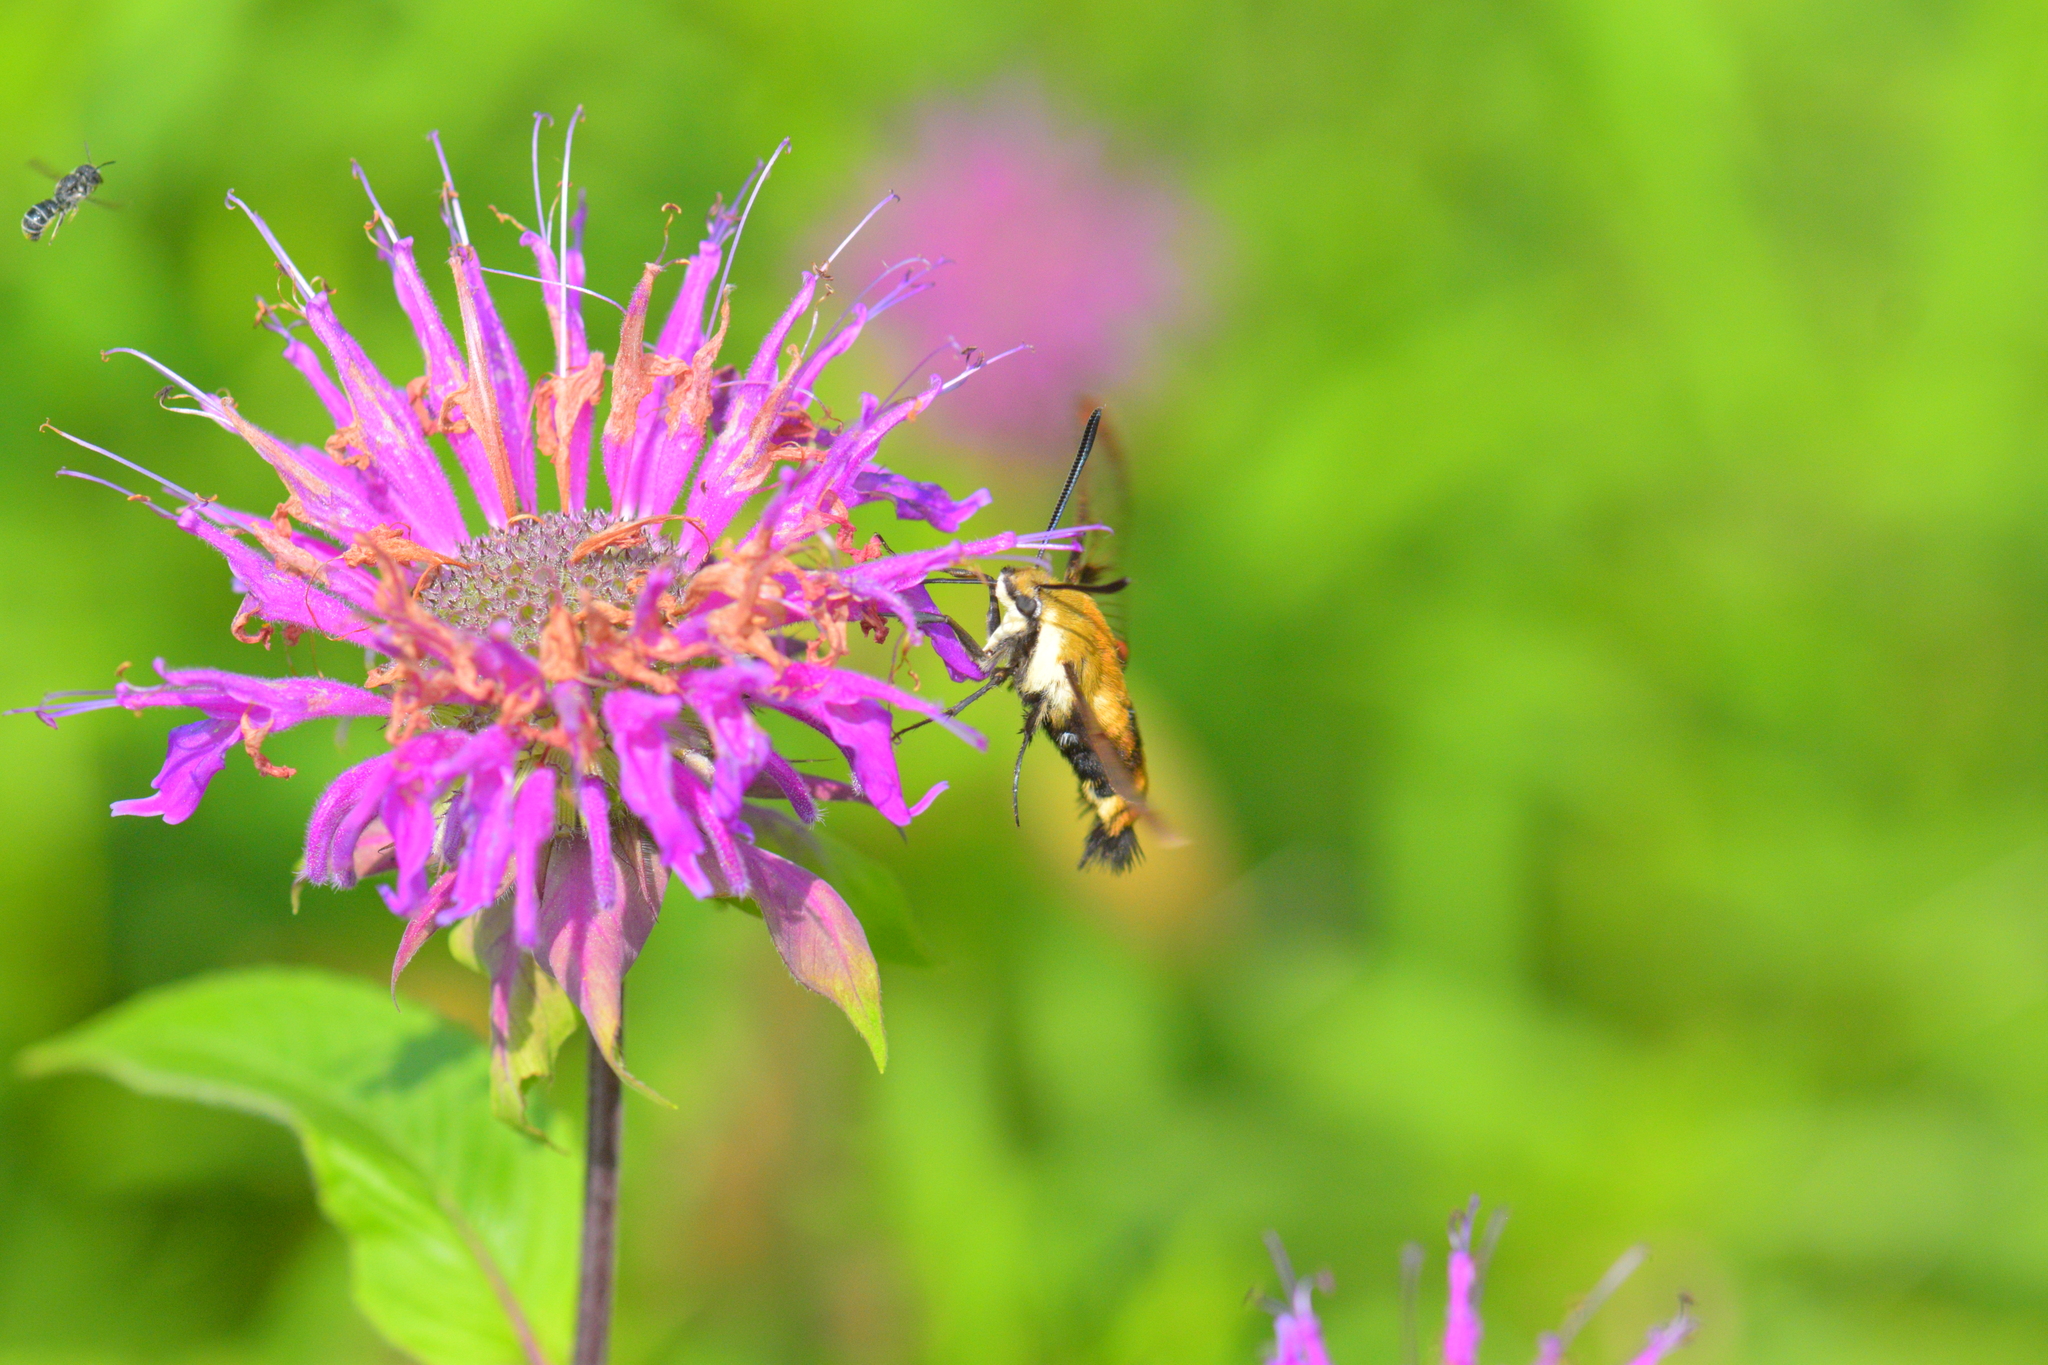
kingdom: Animalia
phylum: Arthropoda
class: Insecta
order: Lepidoptera
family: Sphingidae
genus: Hemaris
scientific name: Hemaris diffinis
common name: Bumblebee moth
